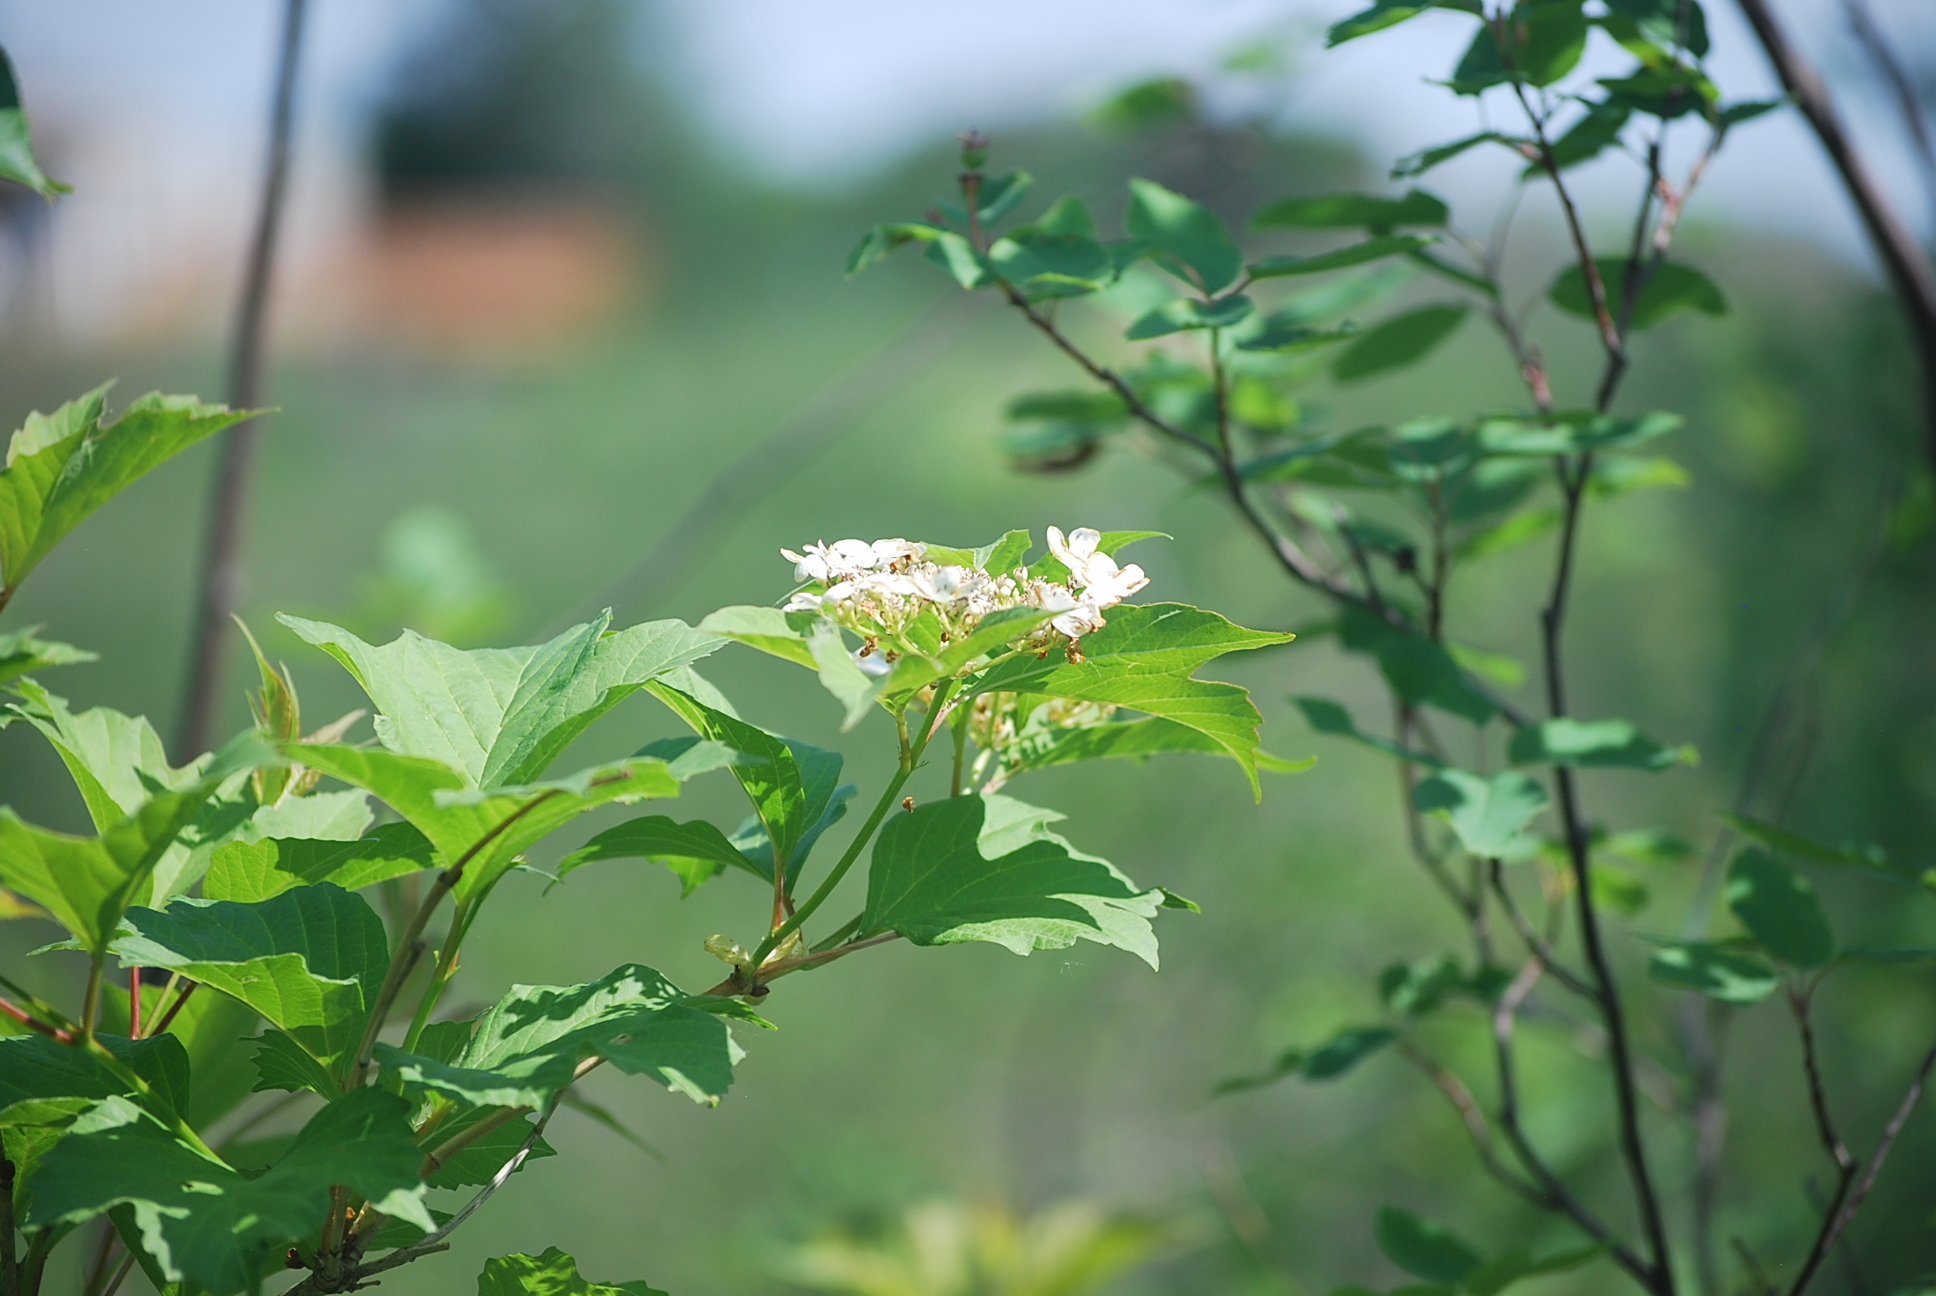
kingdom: Plantae
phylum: Tracheophyta
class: Magnoliopsida
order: Dipsacales
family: Viburnaceae
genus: Viburnum
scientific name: Viburnum opulus
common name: Guelder-rose
